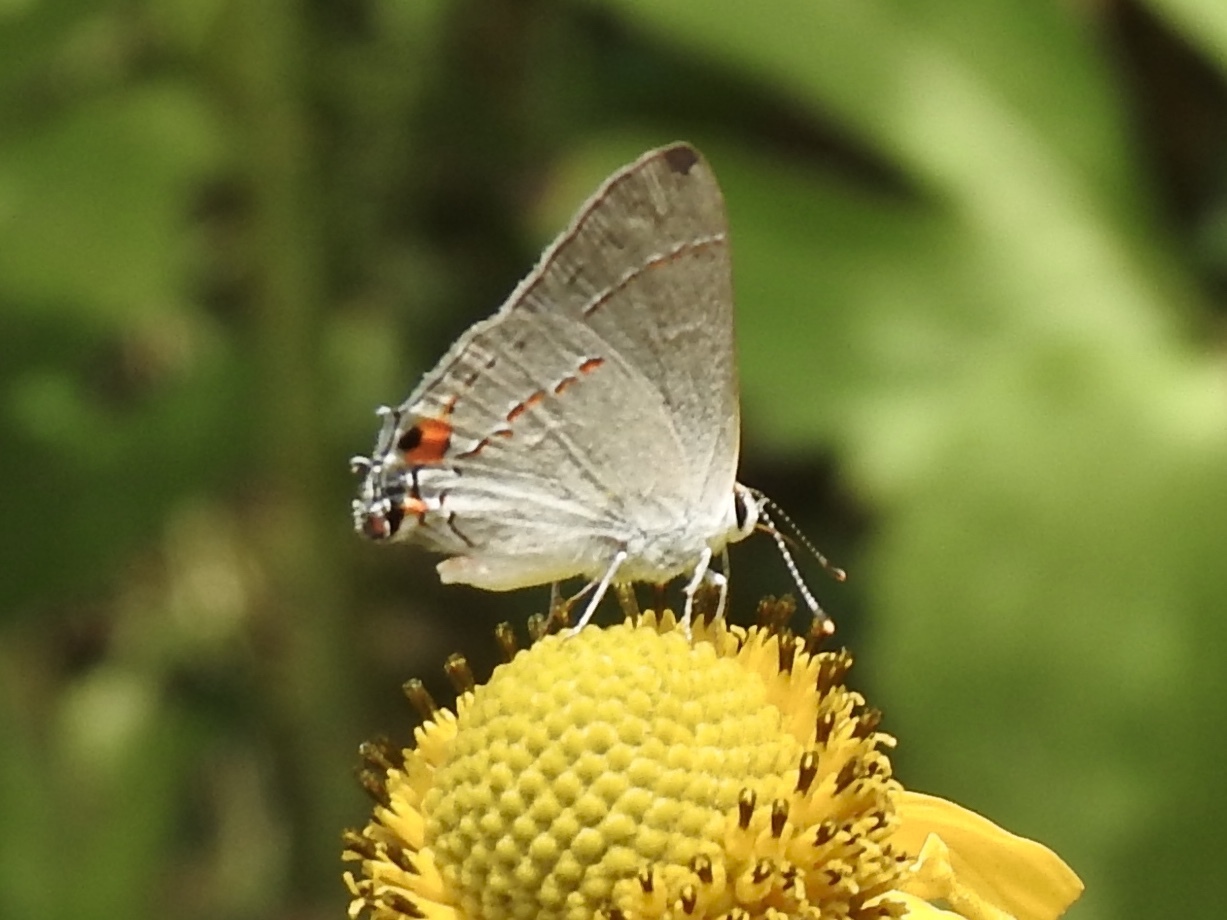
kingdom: Animalia
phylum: Arthropoda
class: Insecta
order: Lepidoptera
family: Lycaenidae
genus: Strymon
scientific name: Strymon melinus
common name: Gray hairstreak
